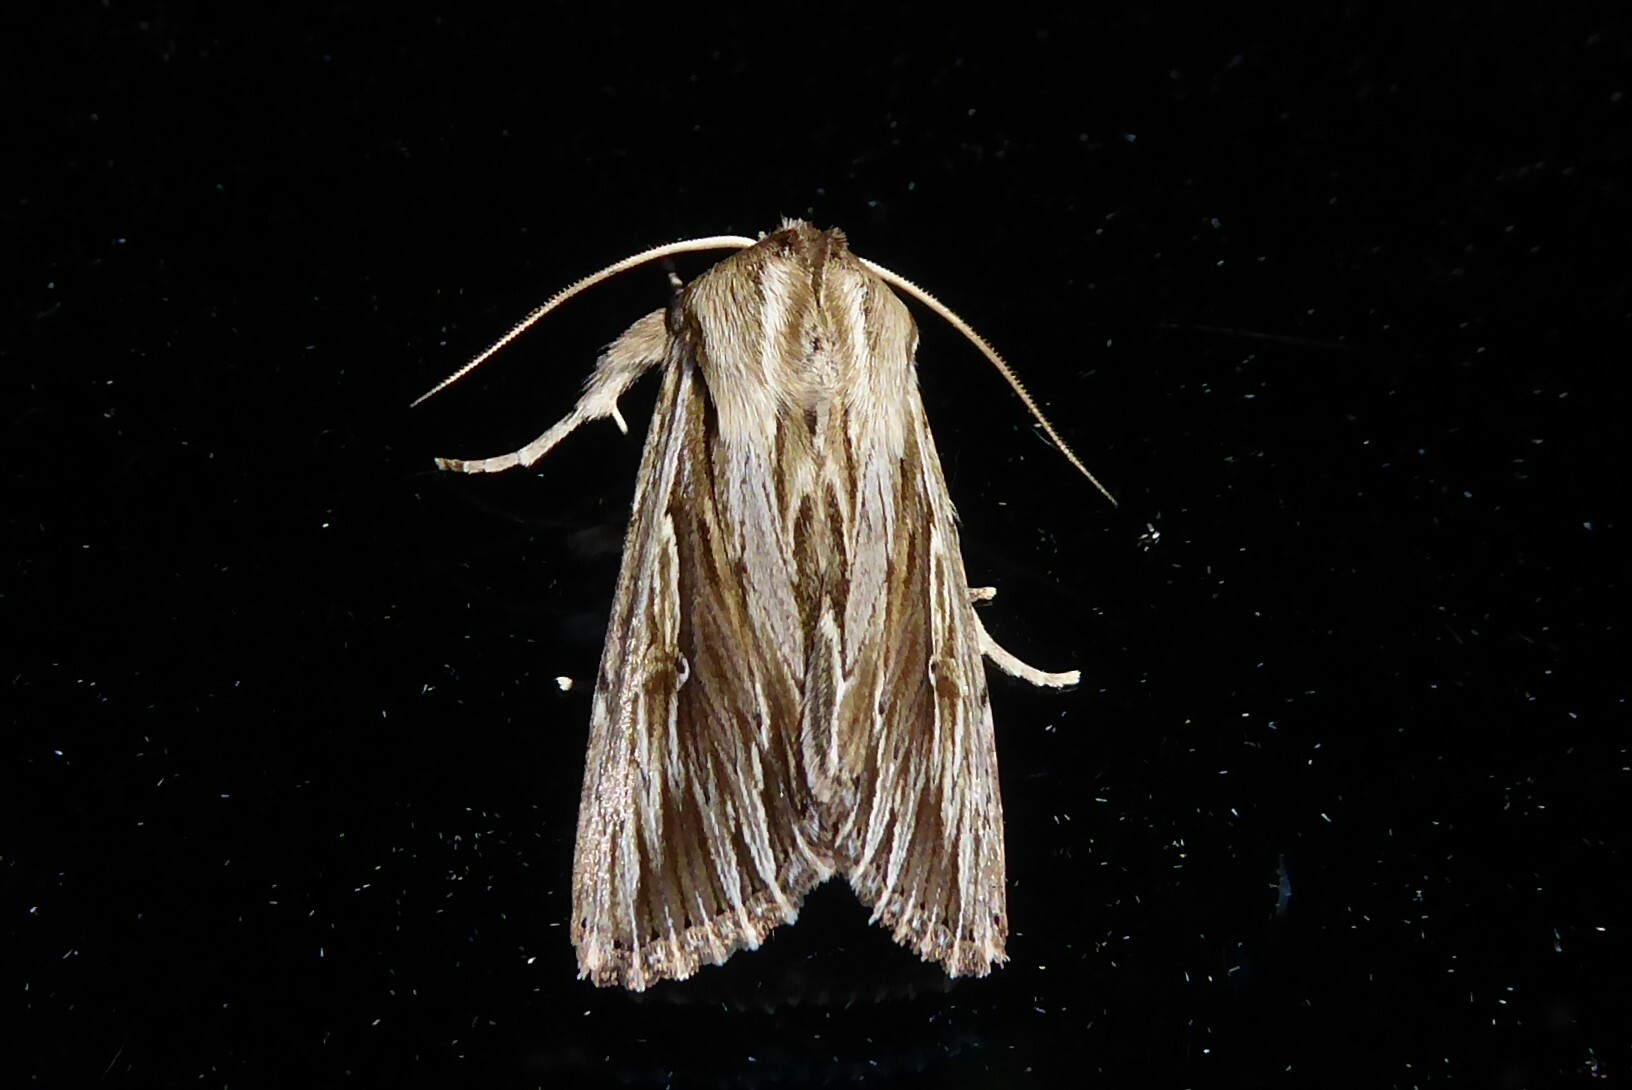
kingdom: Animalia
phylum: Arthropoda
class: Insecta
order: Lepidoptera
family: Noctuidae
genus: Persectania
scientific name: Persectania aversa
